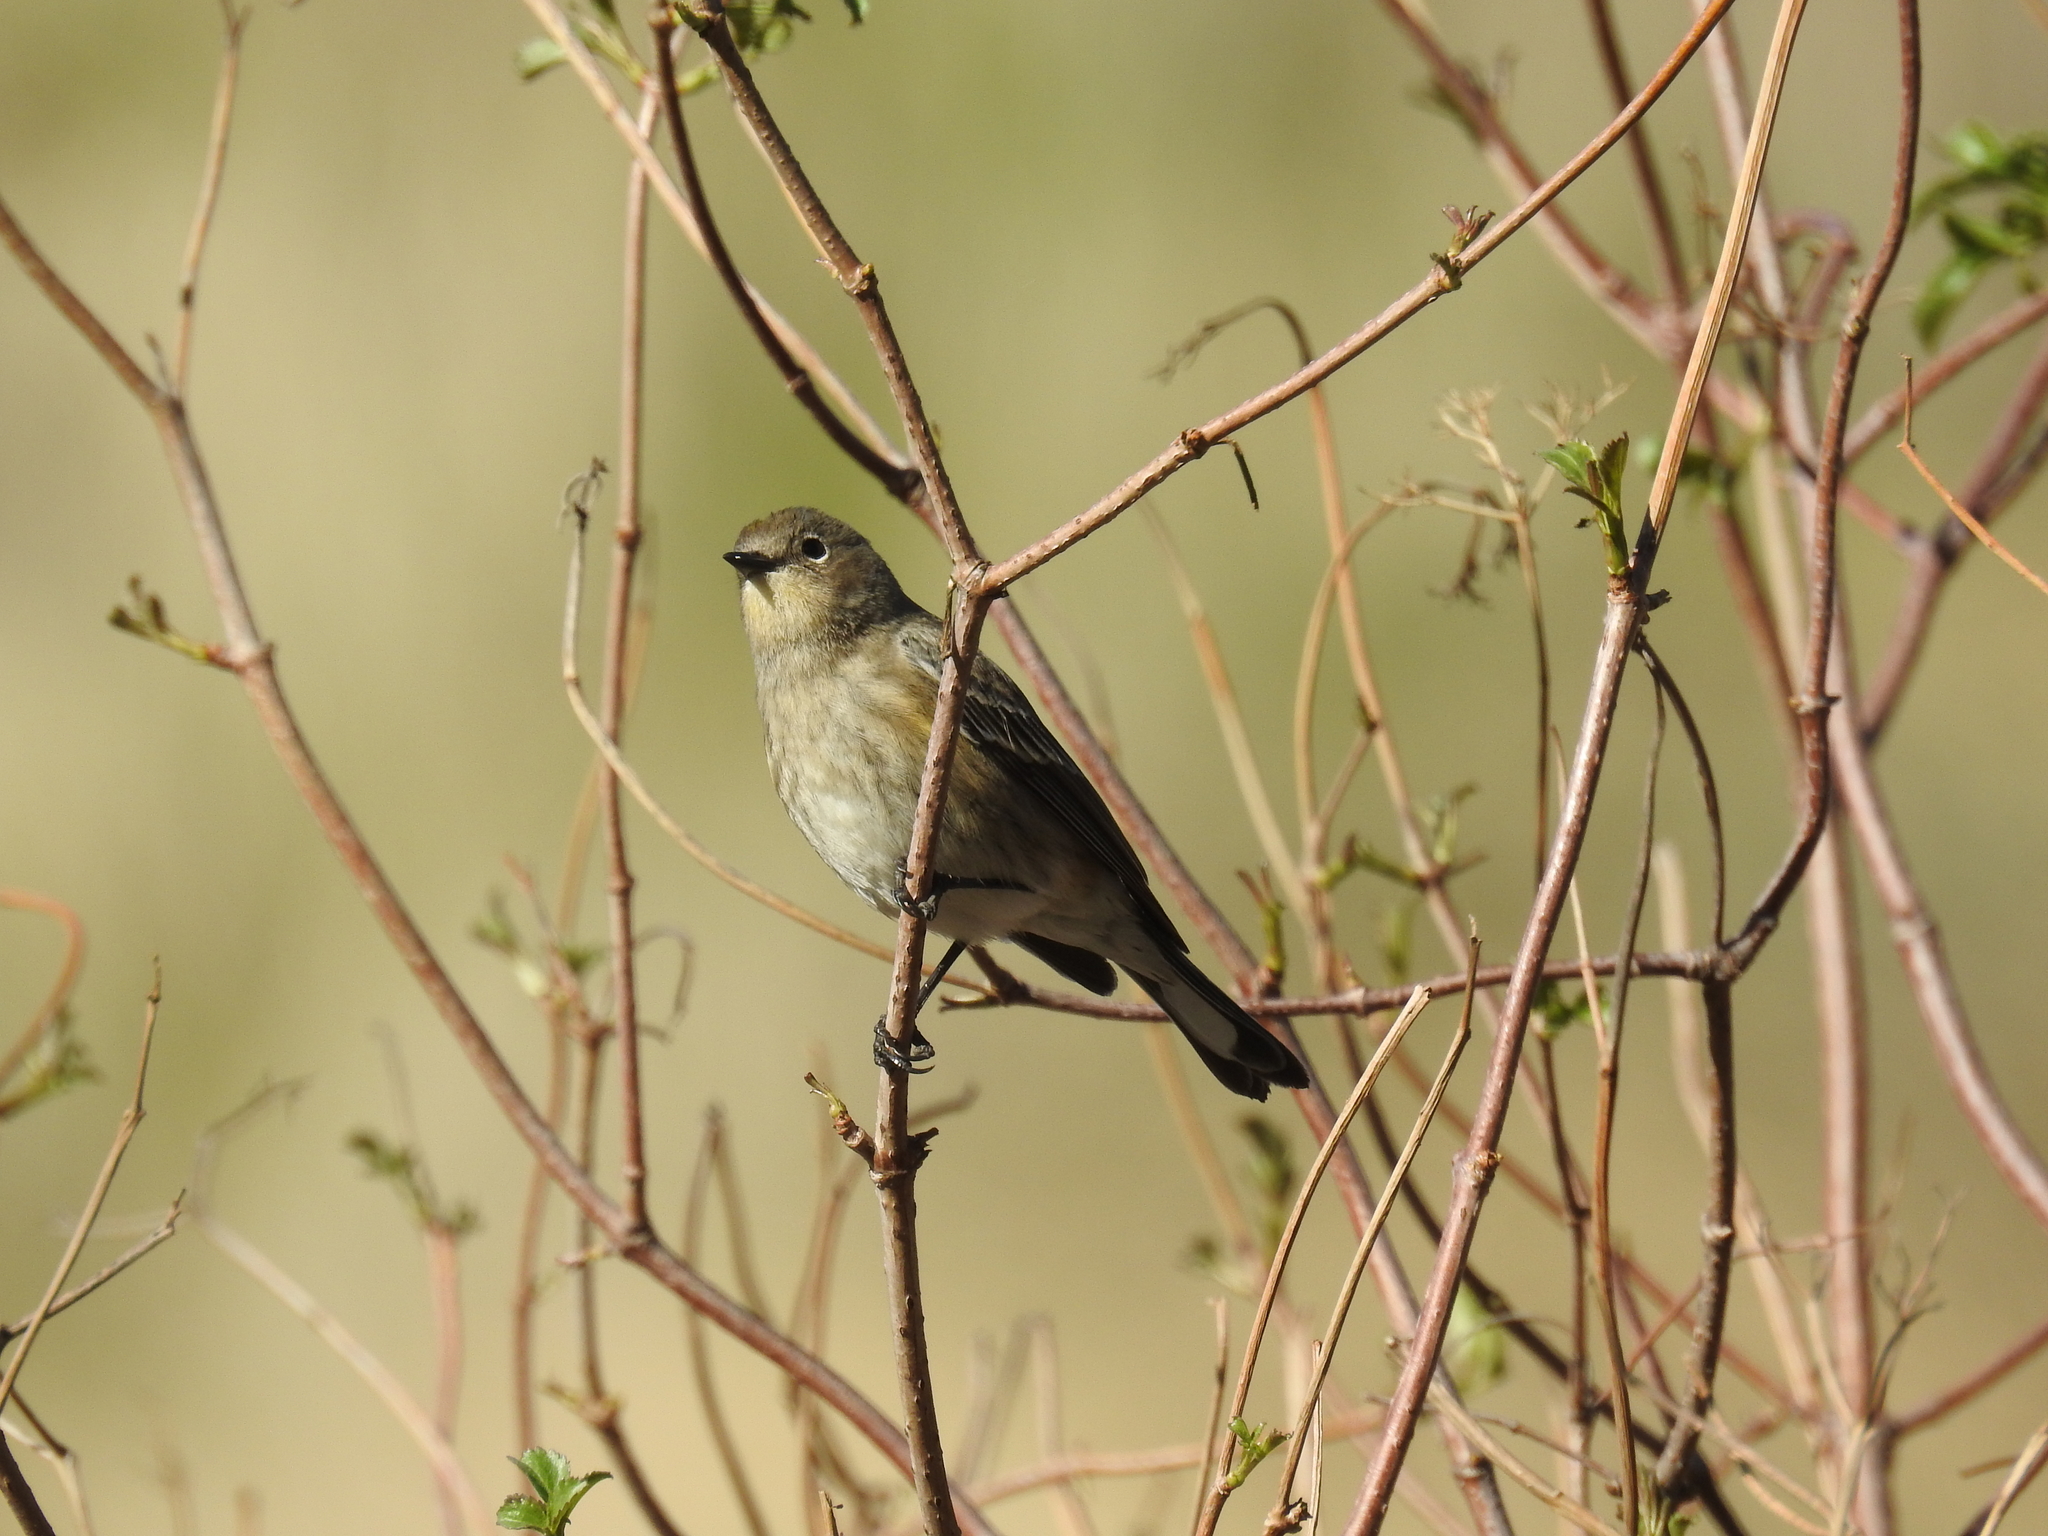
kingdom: Animalia
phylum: Chordata
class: Aves
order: Passeriformes
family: Parulidae
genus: Setophaga
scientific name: Setophaga coronata
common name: Myrtle warbler
